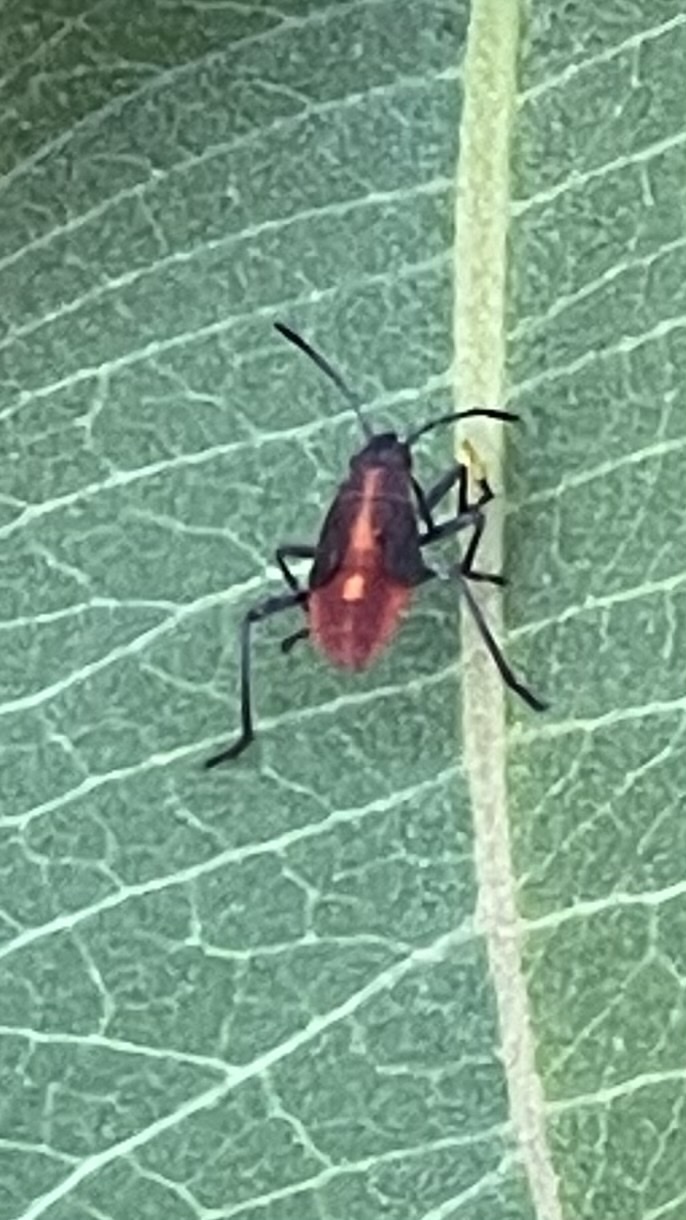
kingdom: Animalia
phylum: Arthropoda
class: Insecta
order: Hemiptera
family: Rhopalidae
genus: Boisea
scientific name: Boisea trivittata
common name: Boxelder bug
